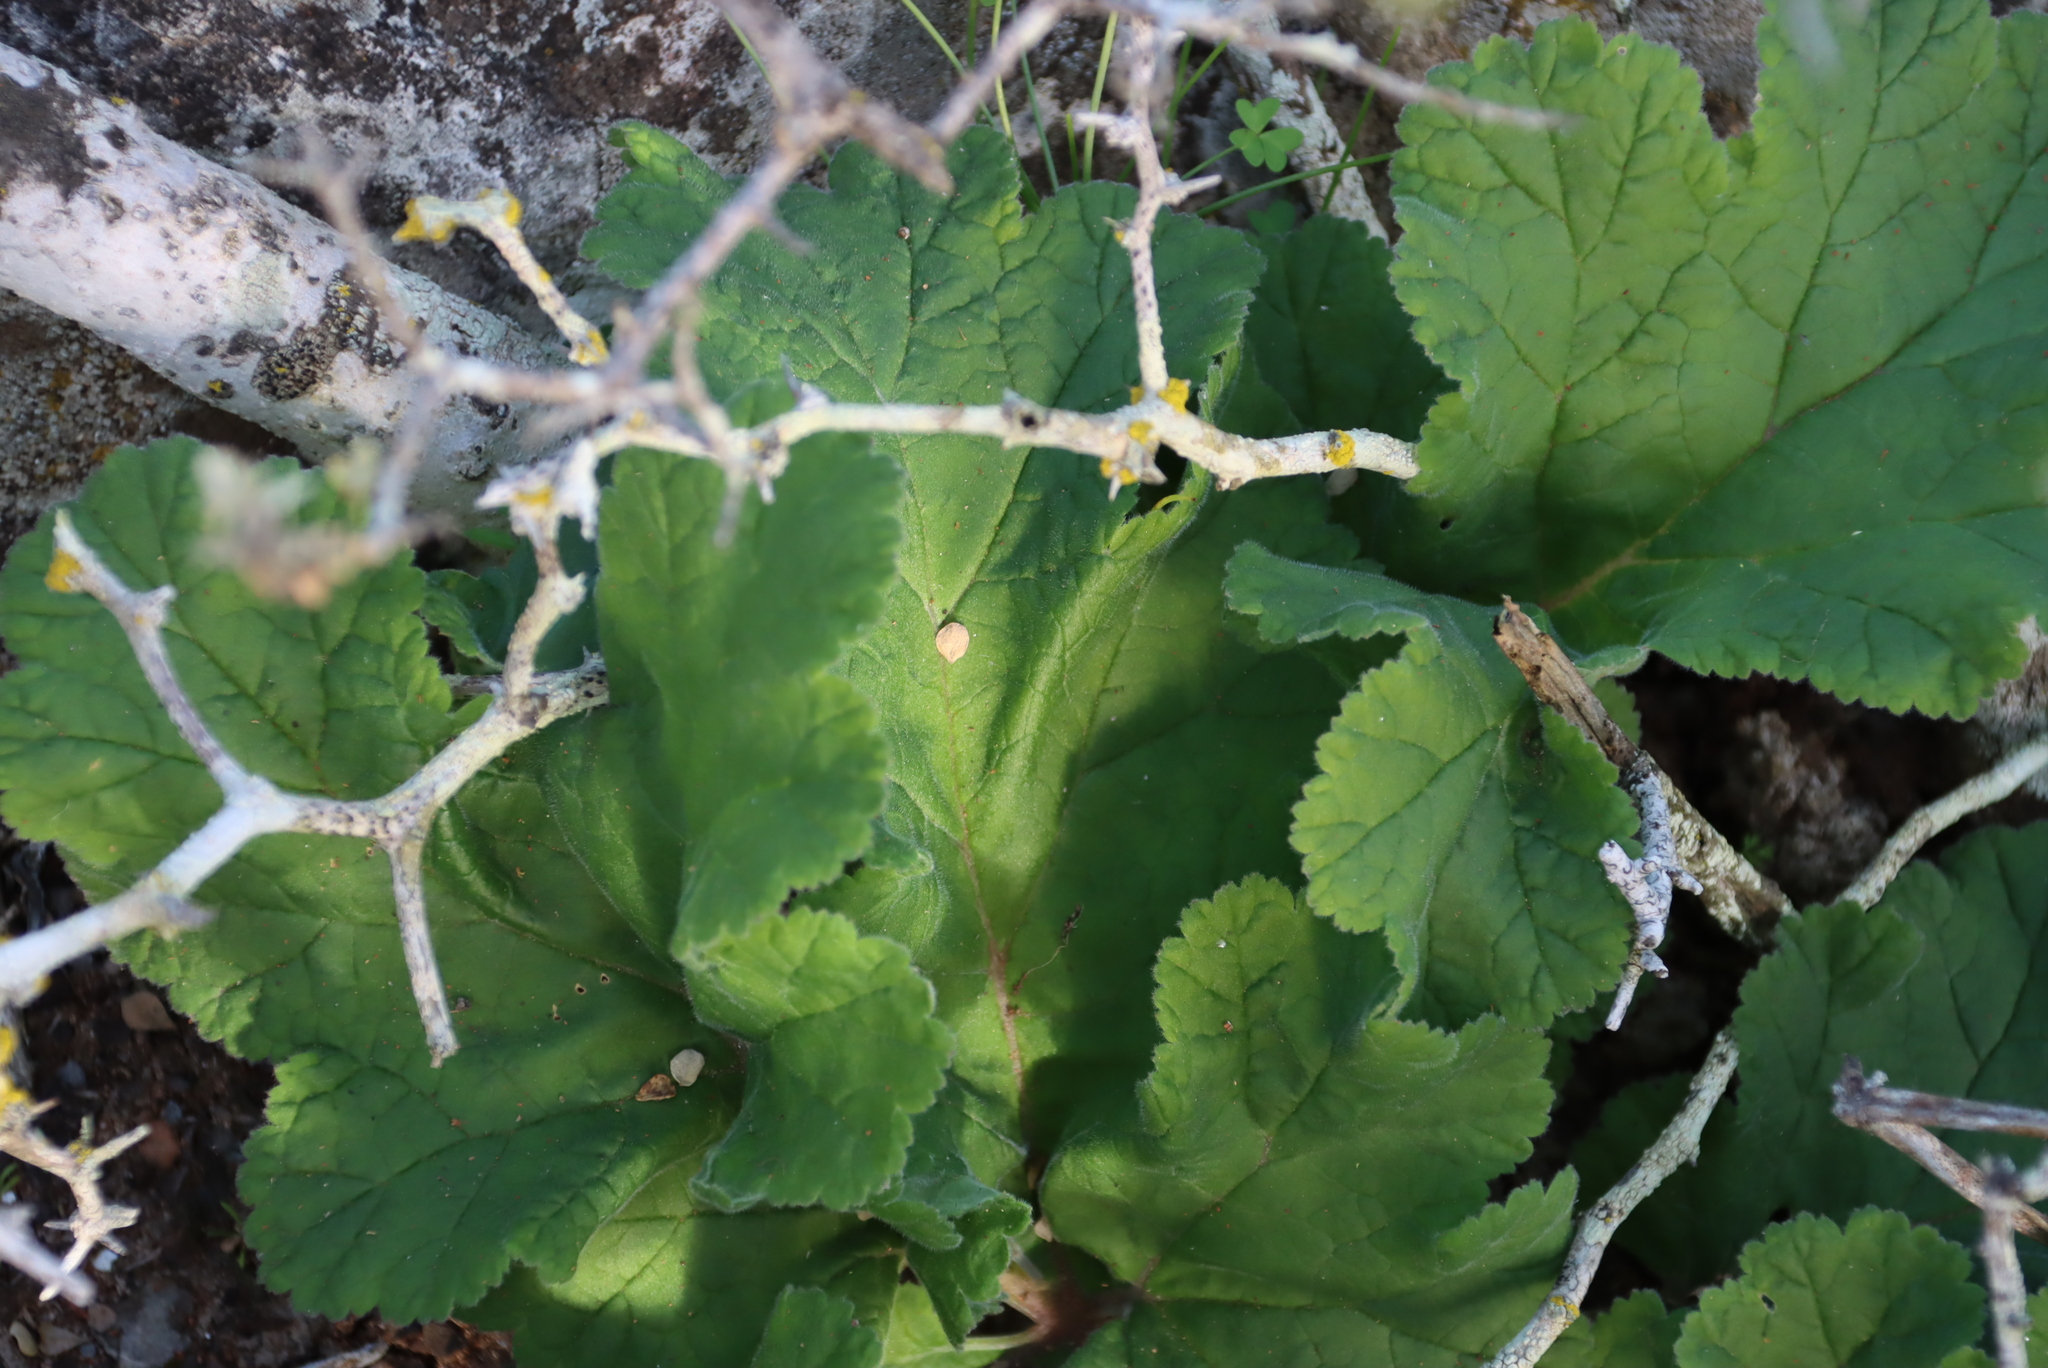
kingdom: Plantae
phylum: Tracheophyta
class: Magnoliopsida
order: Geraniales
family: Geraniaceae
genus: Pelargonium
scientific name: Pelargonium lobatum
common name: Vine-leaf pelargonium
